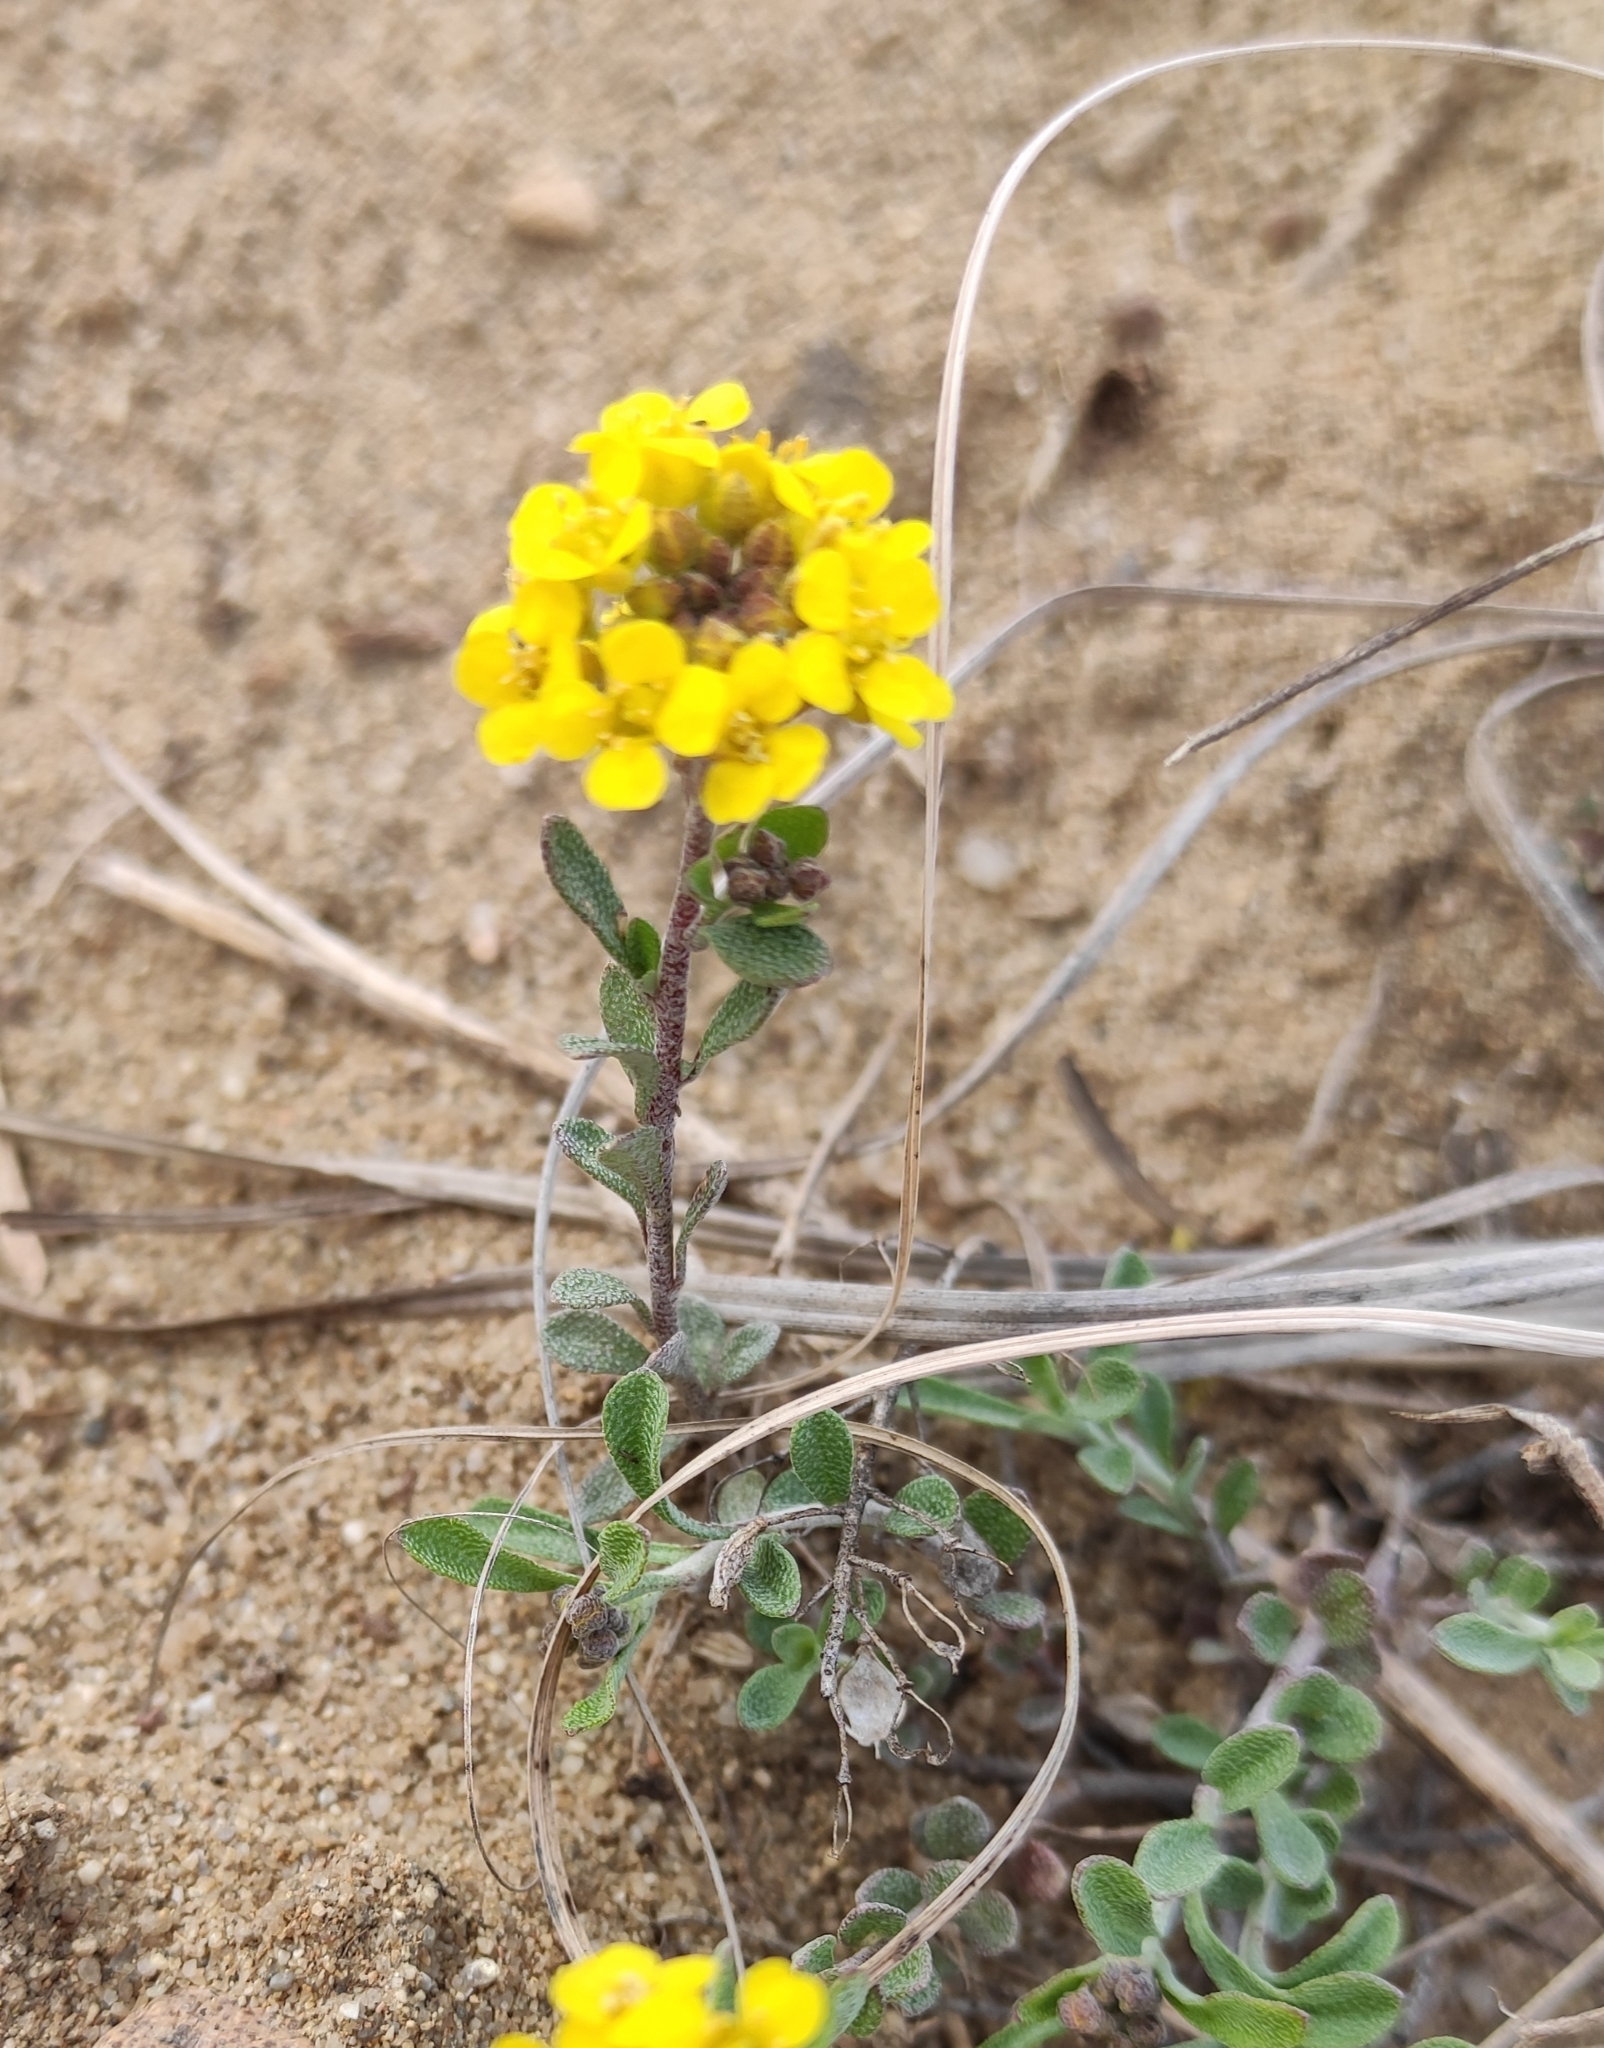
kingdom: Plantae
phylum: Tracheophyta
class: Magnoliopsida
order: Brassicales
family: Brassicaceae
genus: Odontarrhena
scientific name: Odontarrhena obovata
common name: American alyssum
